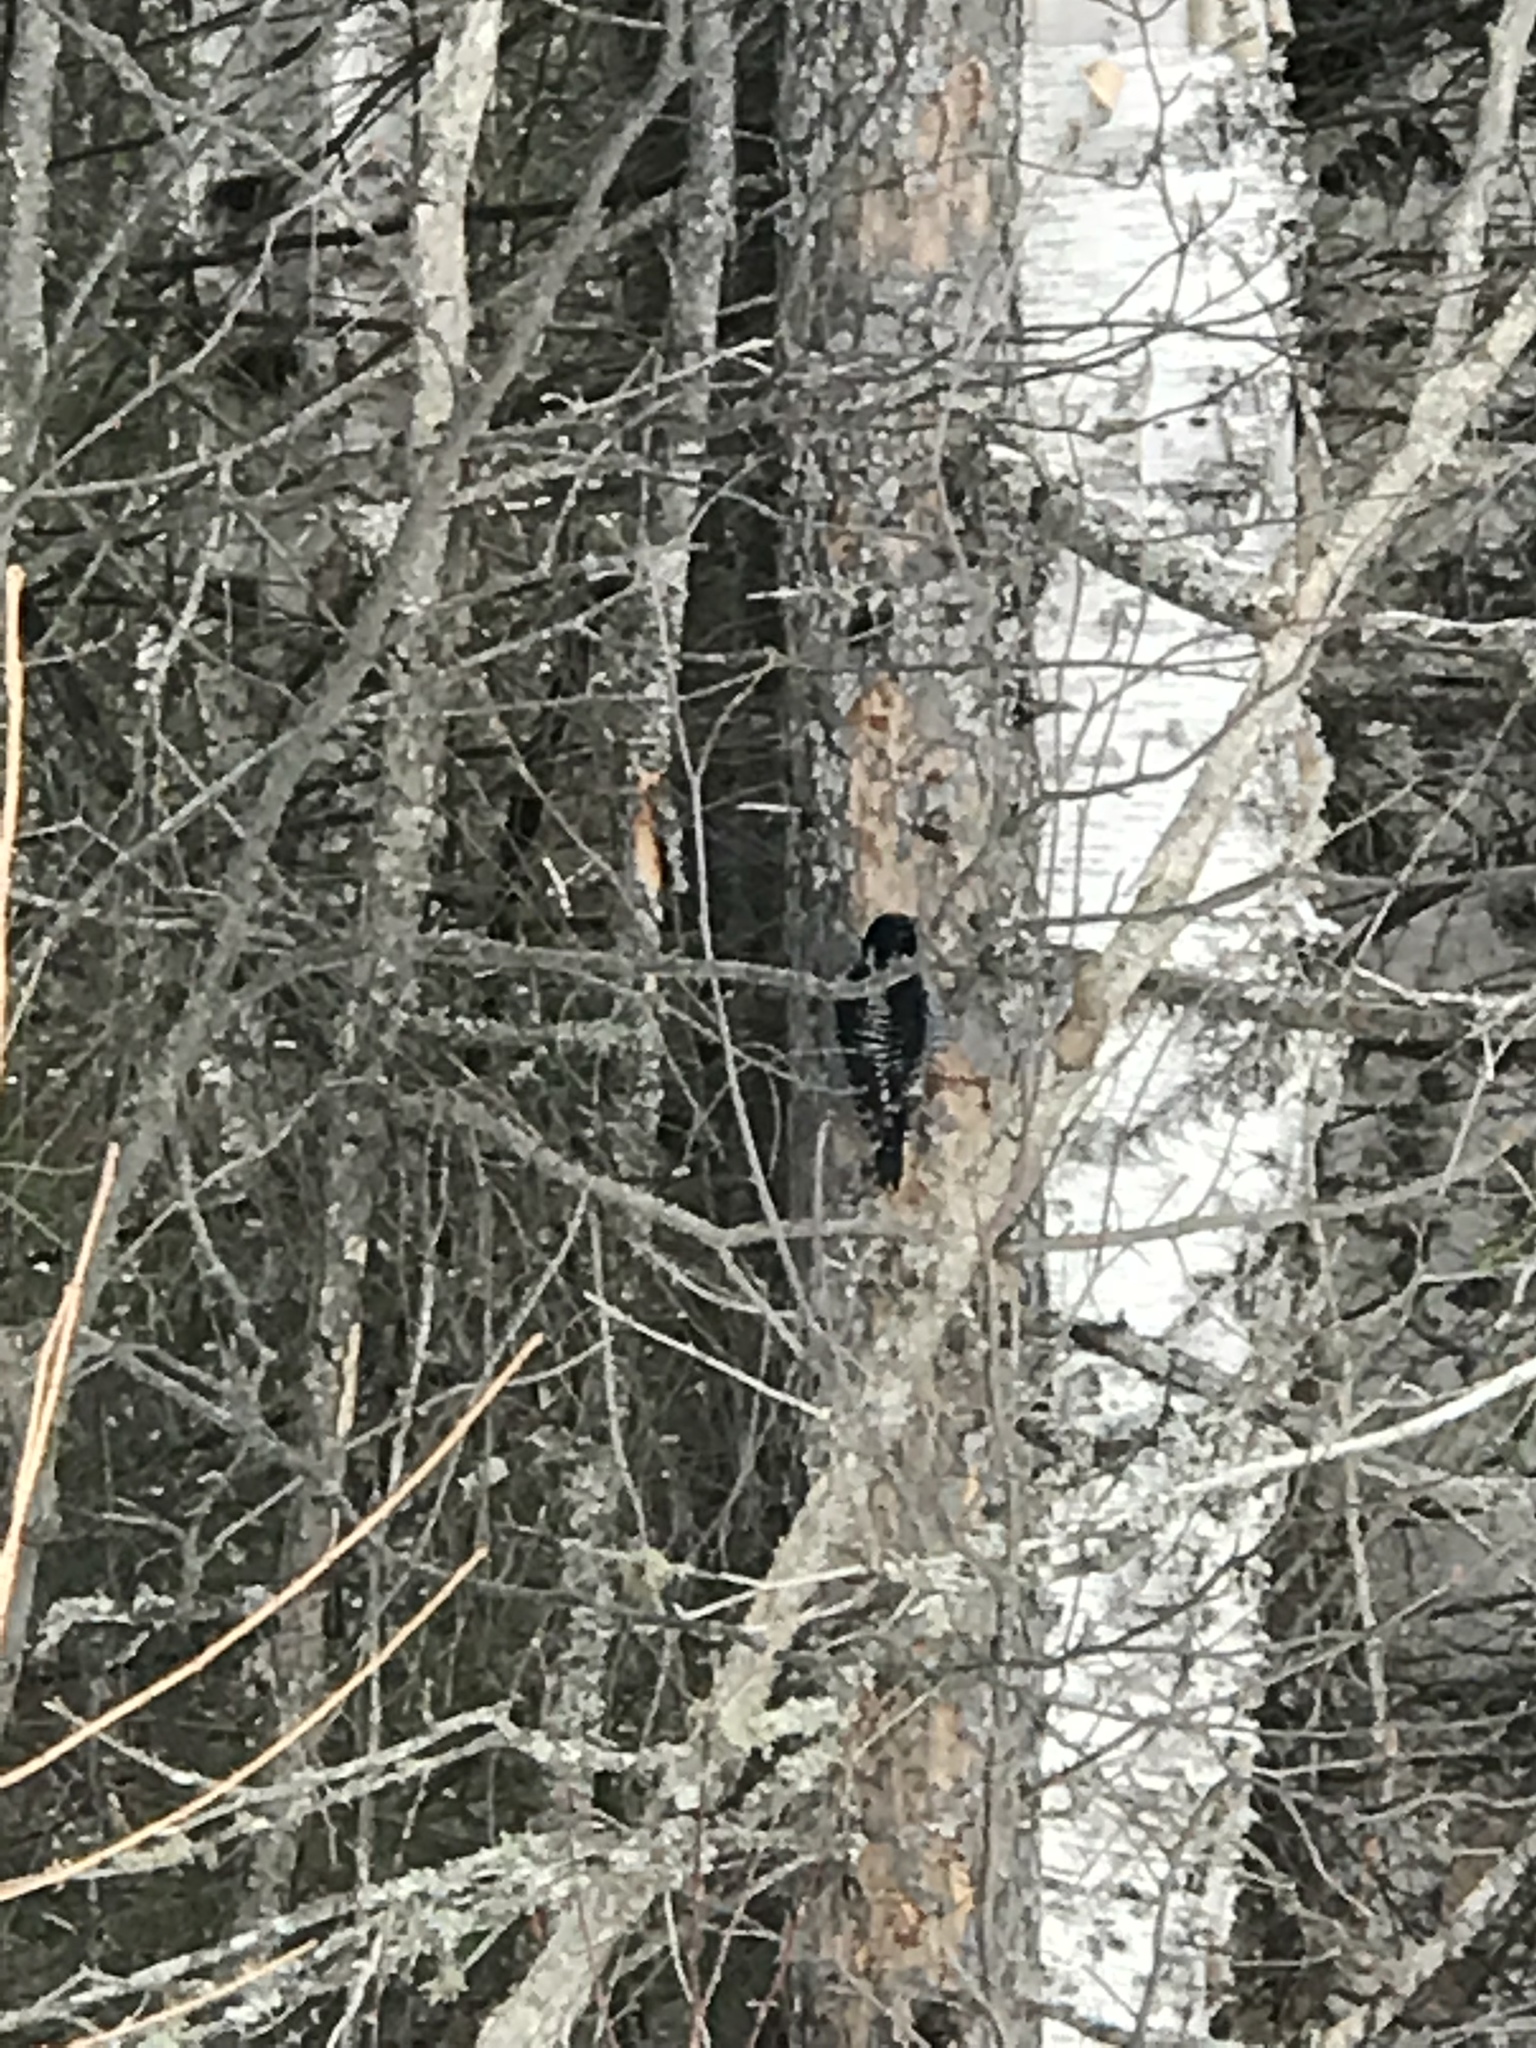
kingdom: Animalia
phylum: Chordata
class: Aves
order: Piciformes
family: Picidae
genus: Picoides
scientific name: Picoides dorsalis
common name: American three-toed woodpecker
